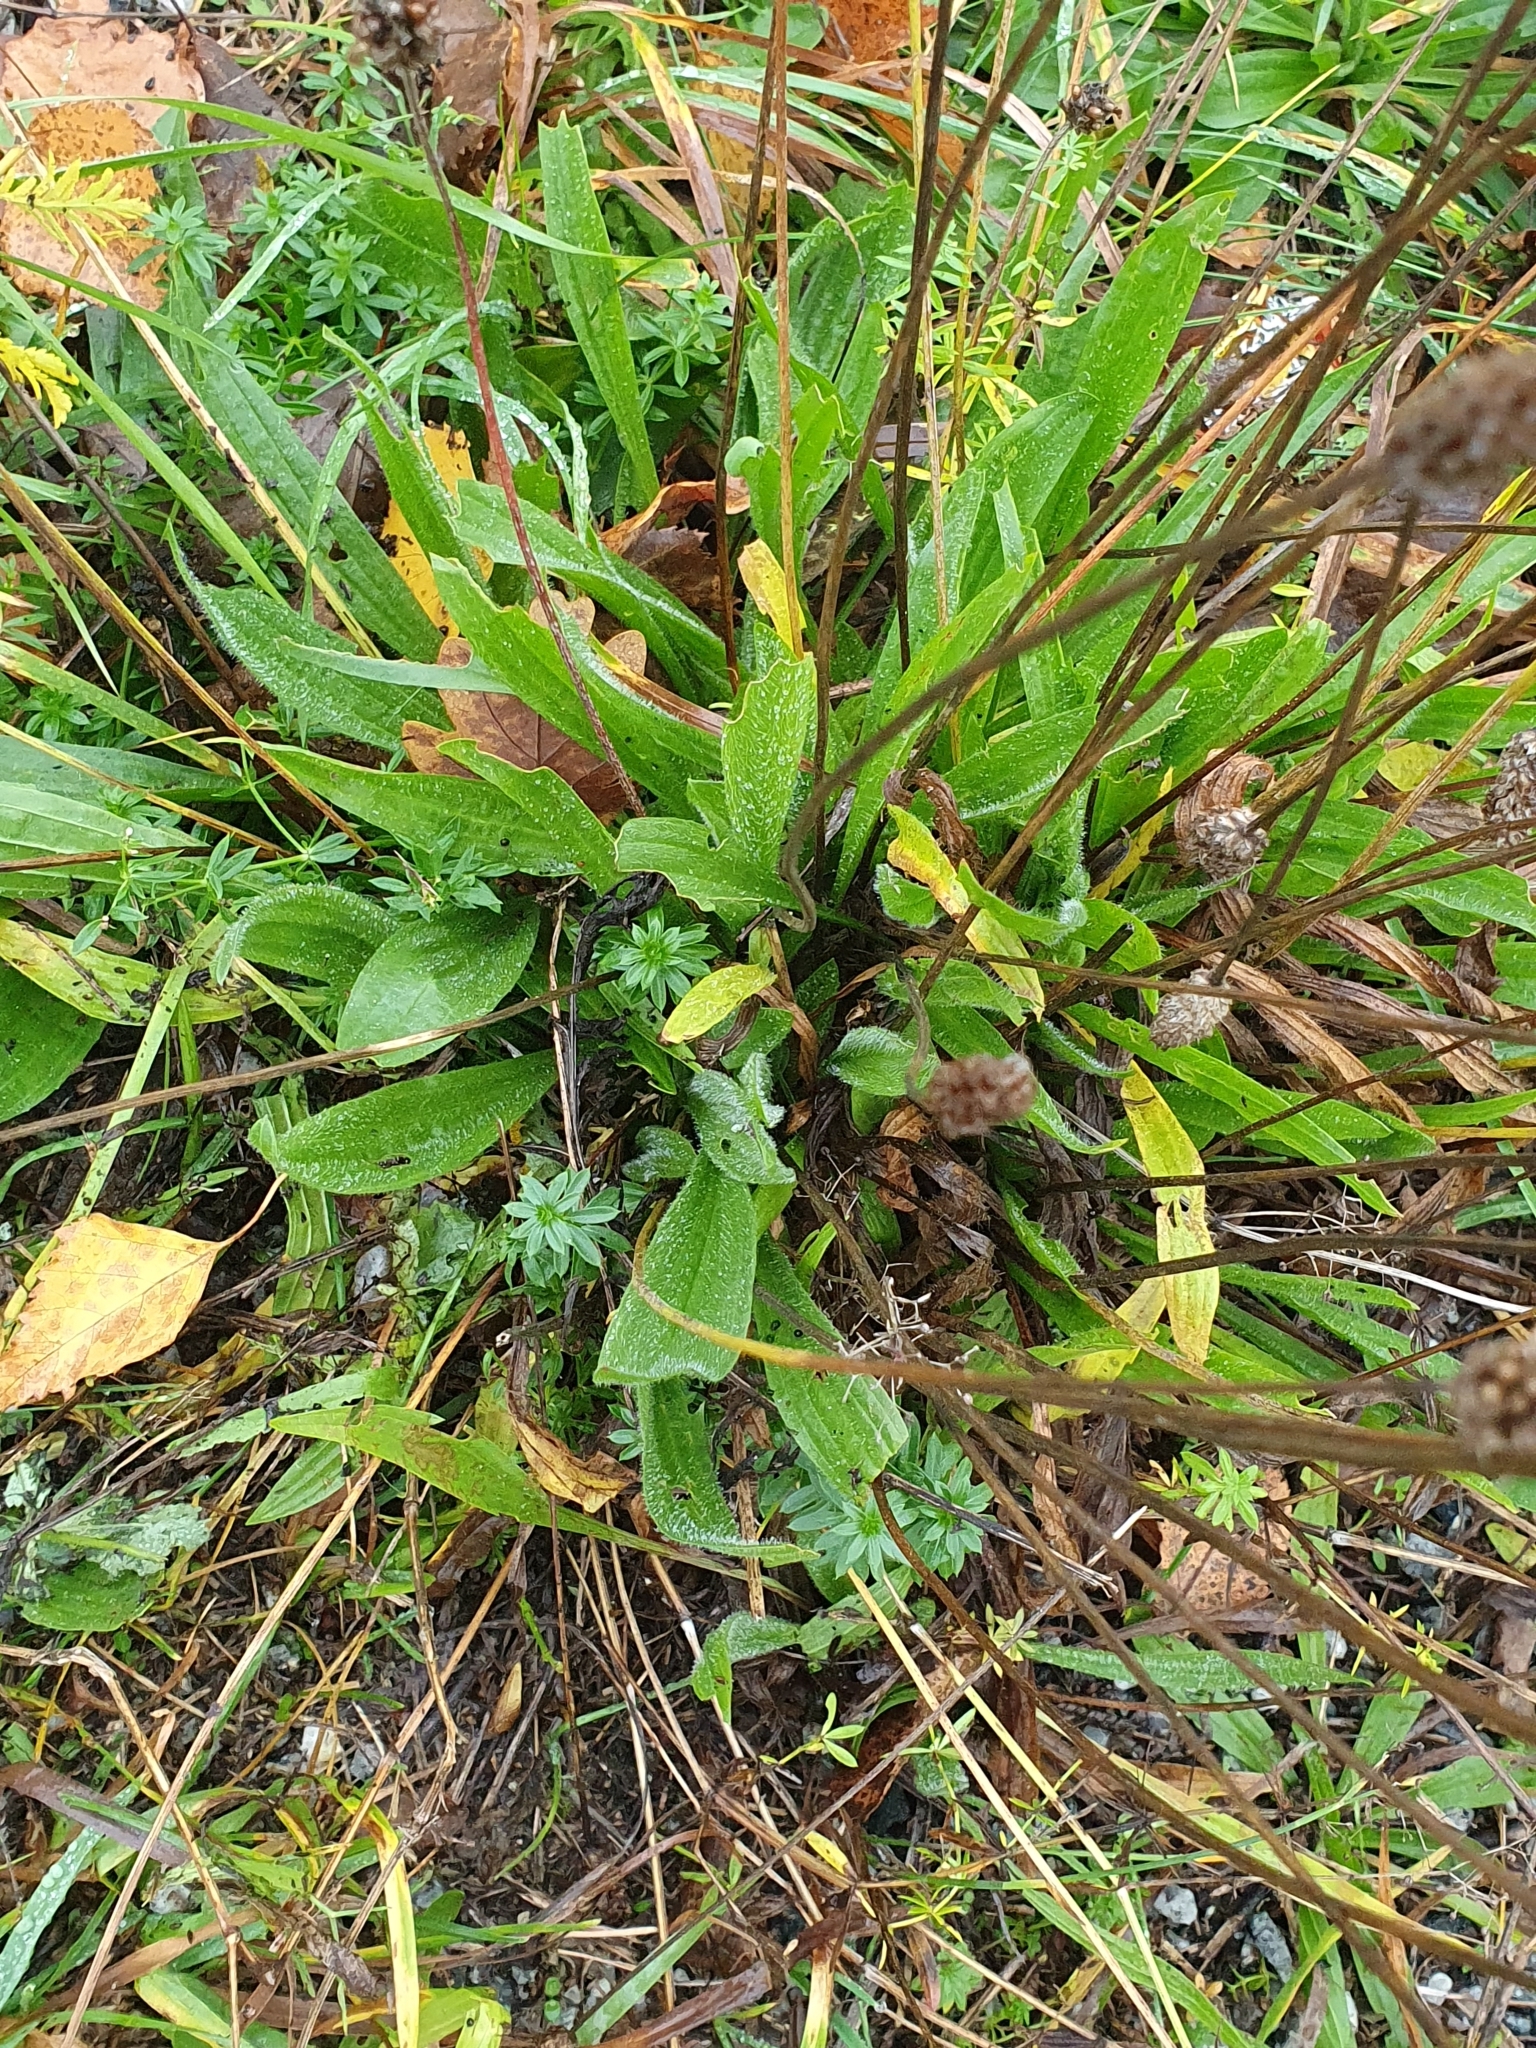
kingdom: Plantae
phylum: Tracheophyta
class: Magnoliopsida
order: Lamiales
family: Plantaginaceae
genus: Plantago
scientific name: Plantago lanceolata
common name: Ribwort plantain
